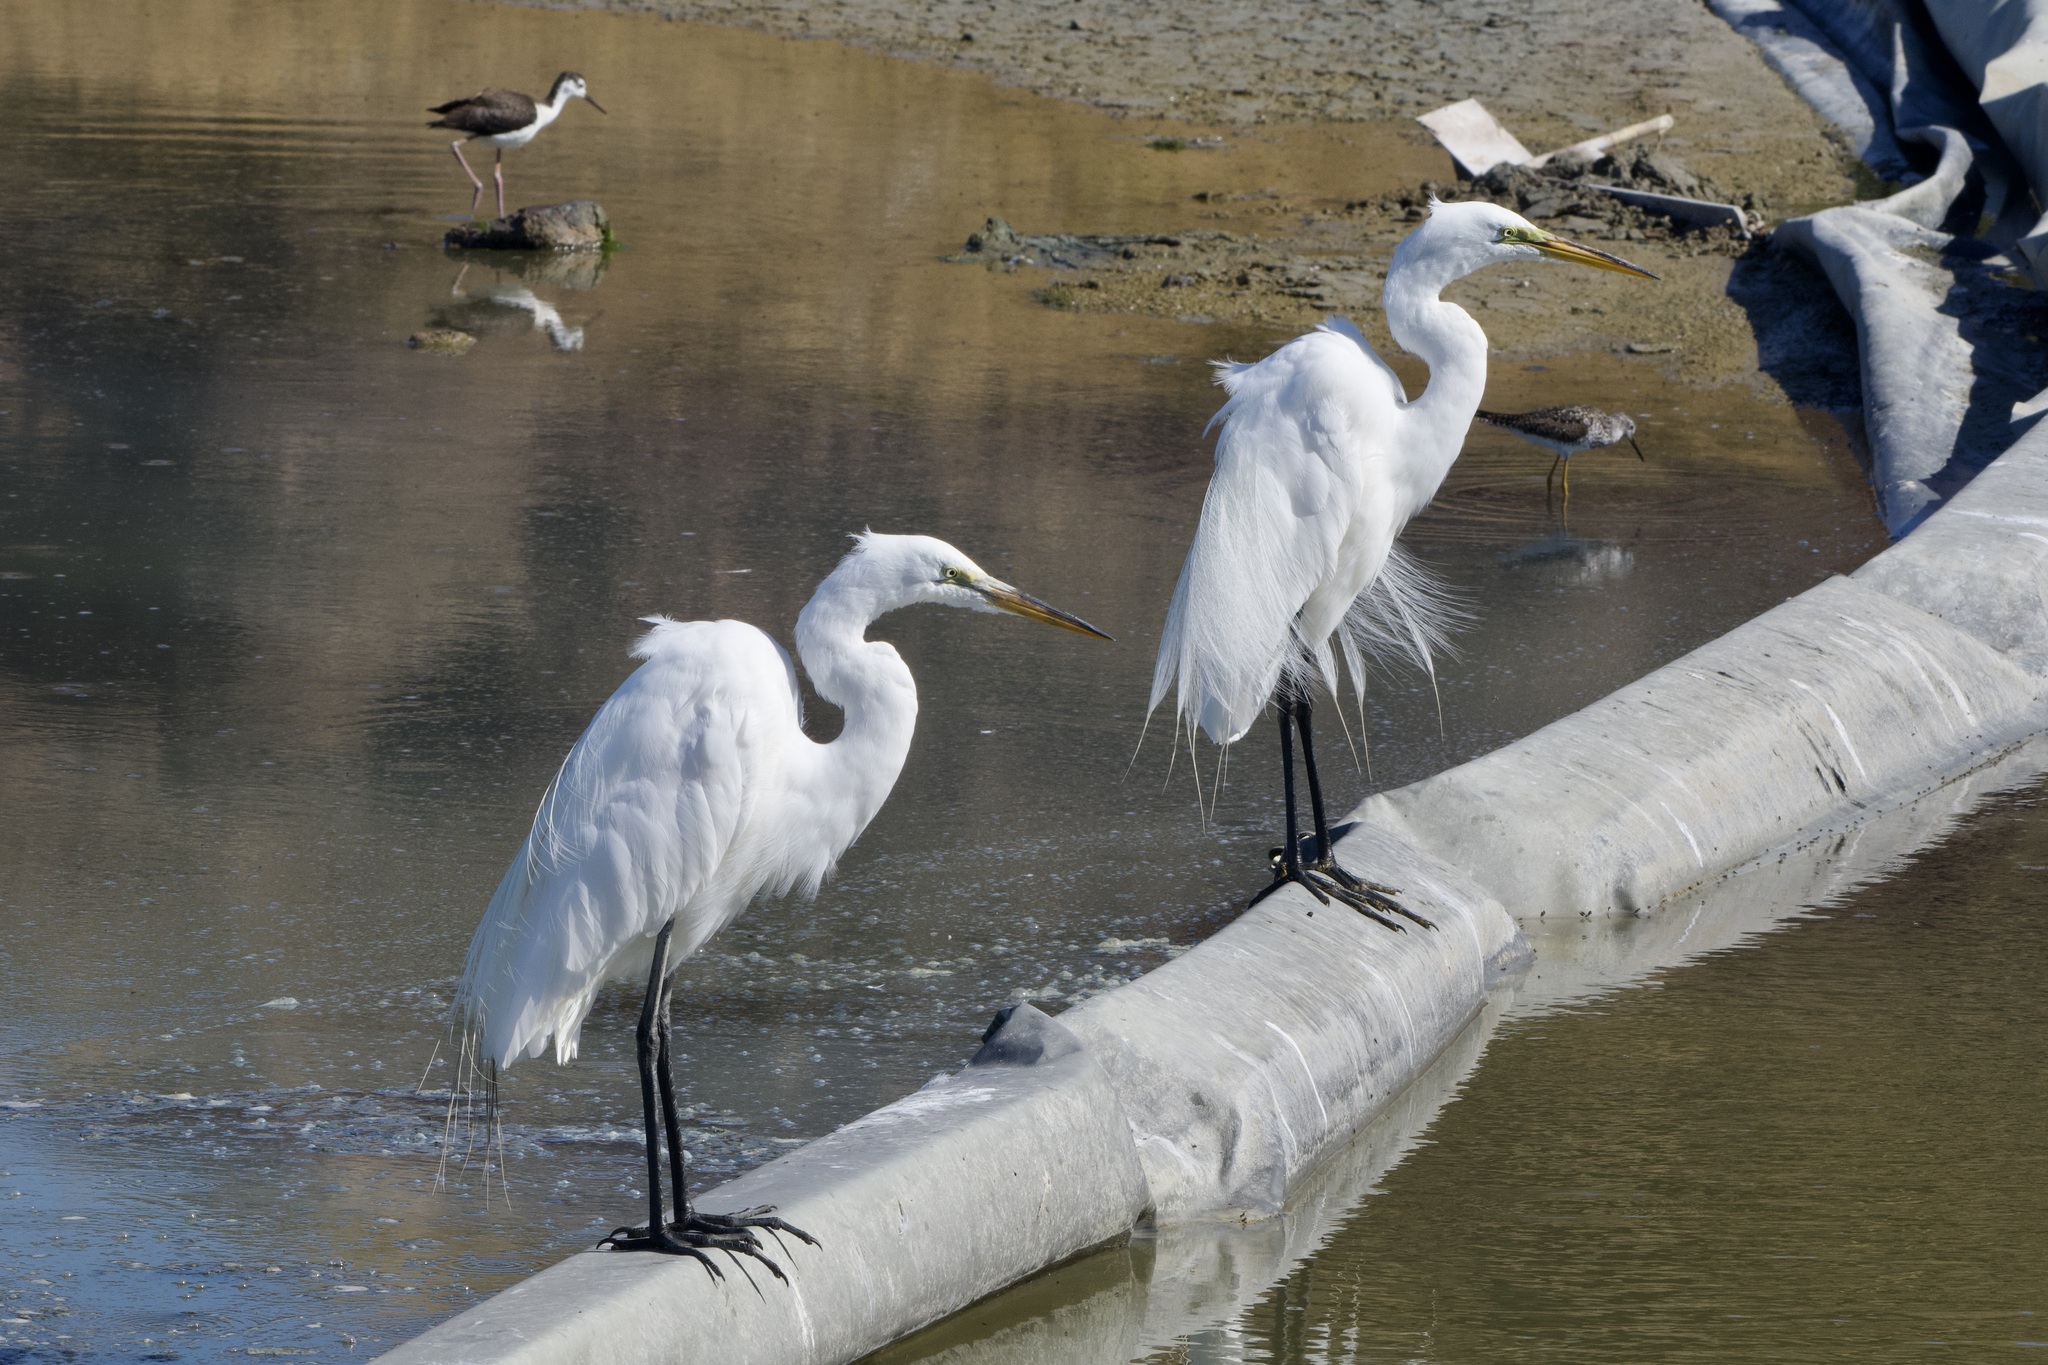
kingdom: Animalia
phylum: Chordata
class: Aves
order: Pelecaniformes
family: Ardeidae
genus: Ardea
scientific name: Ardea alba
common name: Great egret
